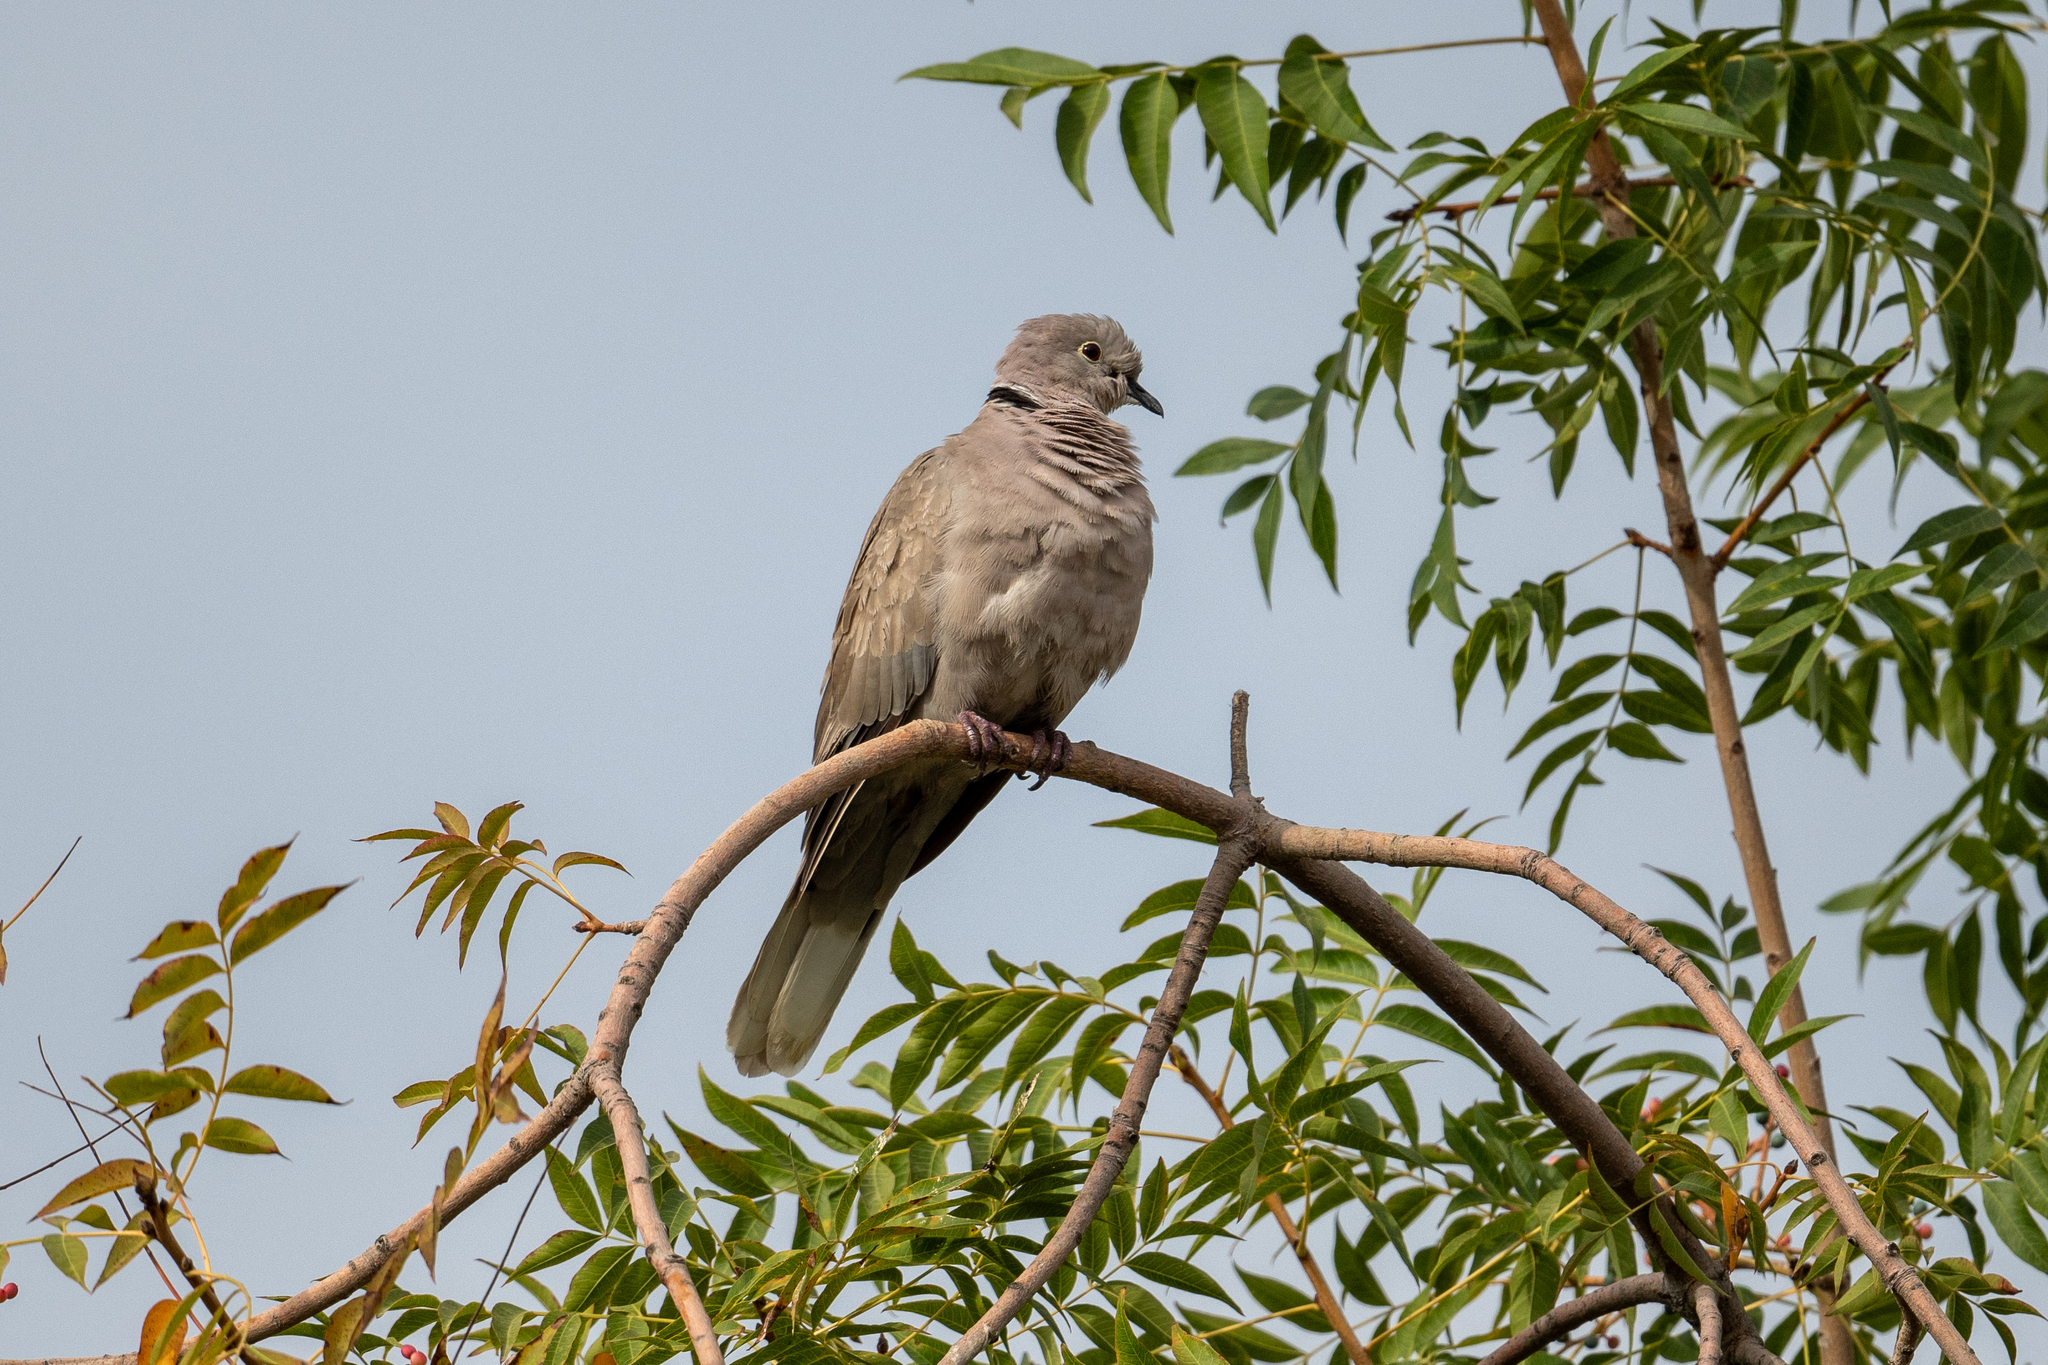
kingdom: Animalia
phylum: Chordata
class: Aves
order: Columbiformes
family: Columbidae
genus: Streptopelia
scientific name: Streptopelia decaocto
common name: Eurasian collared dove
